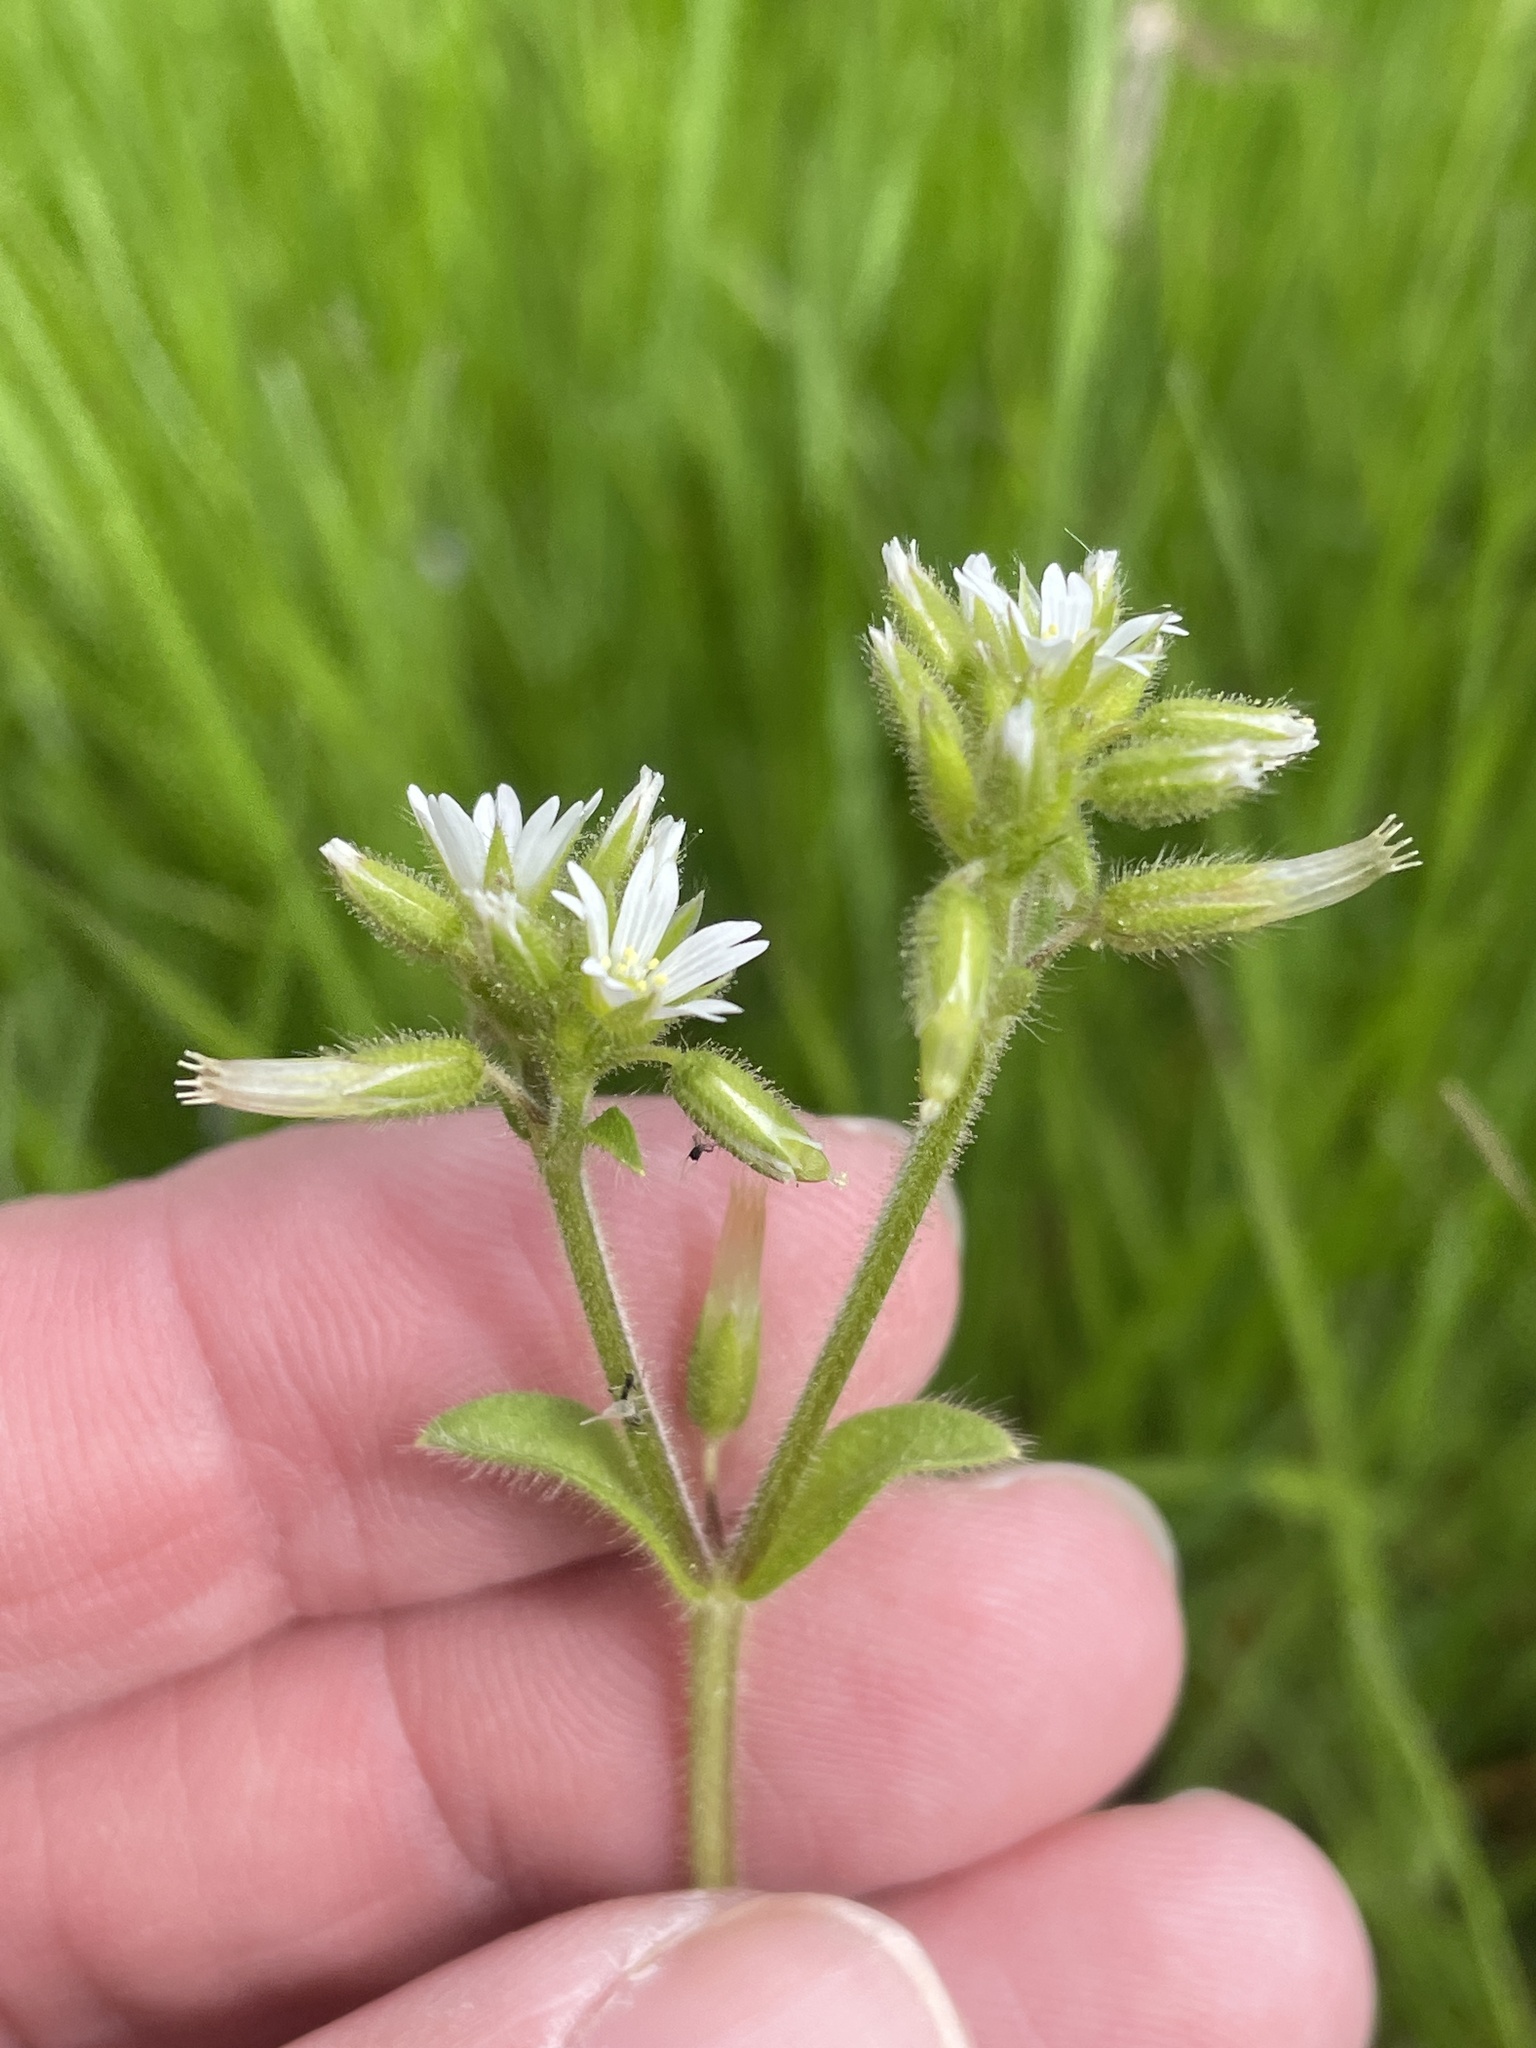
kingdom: Plantae
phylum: Tracheophyta
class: Magnoliopsida
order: Caryophyllales
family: Caryophyllaceae
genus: Cerastium
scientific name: Cerastium glomeratum
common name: Sticky chickweed
